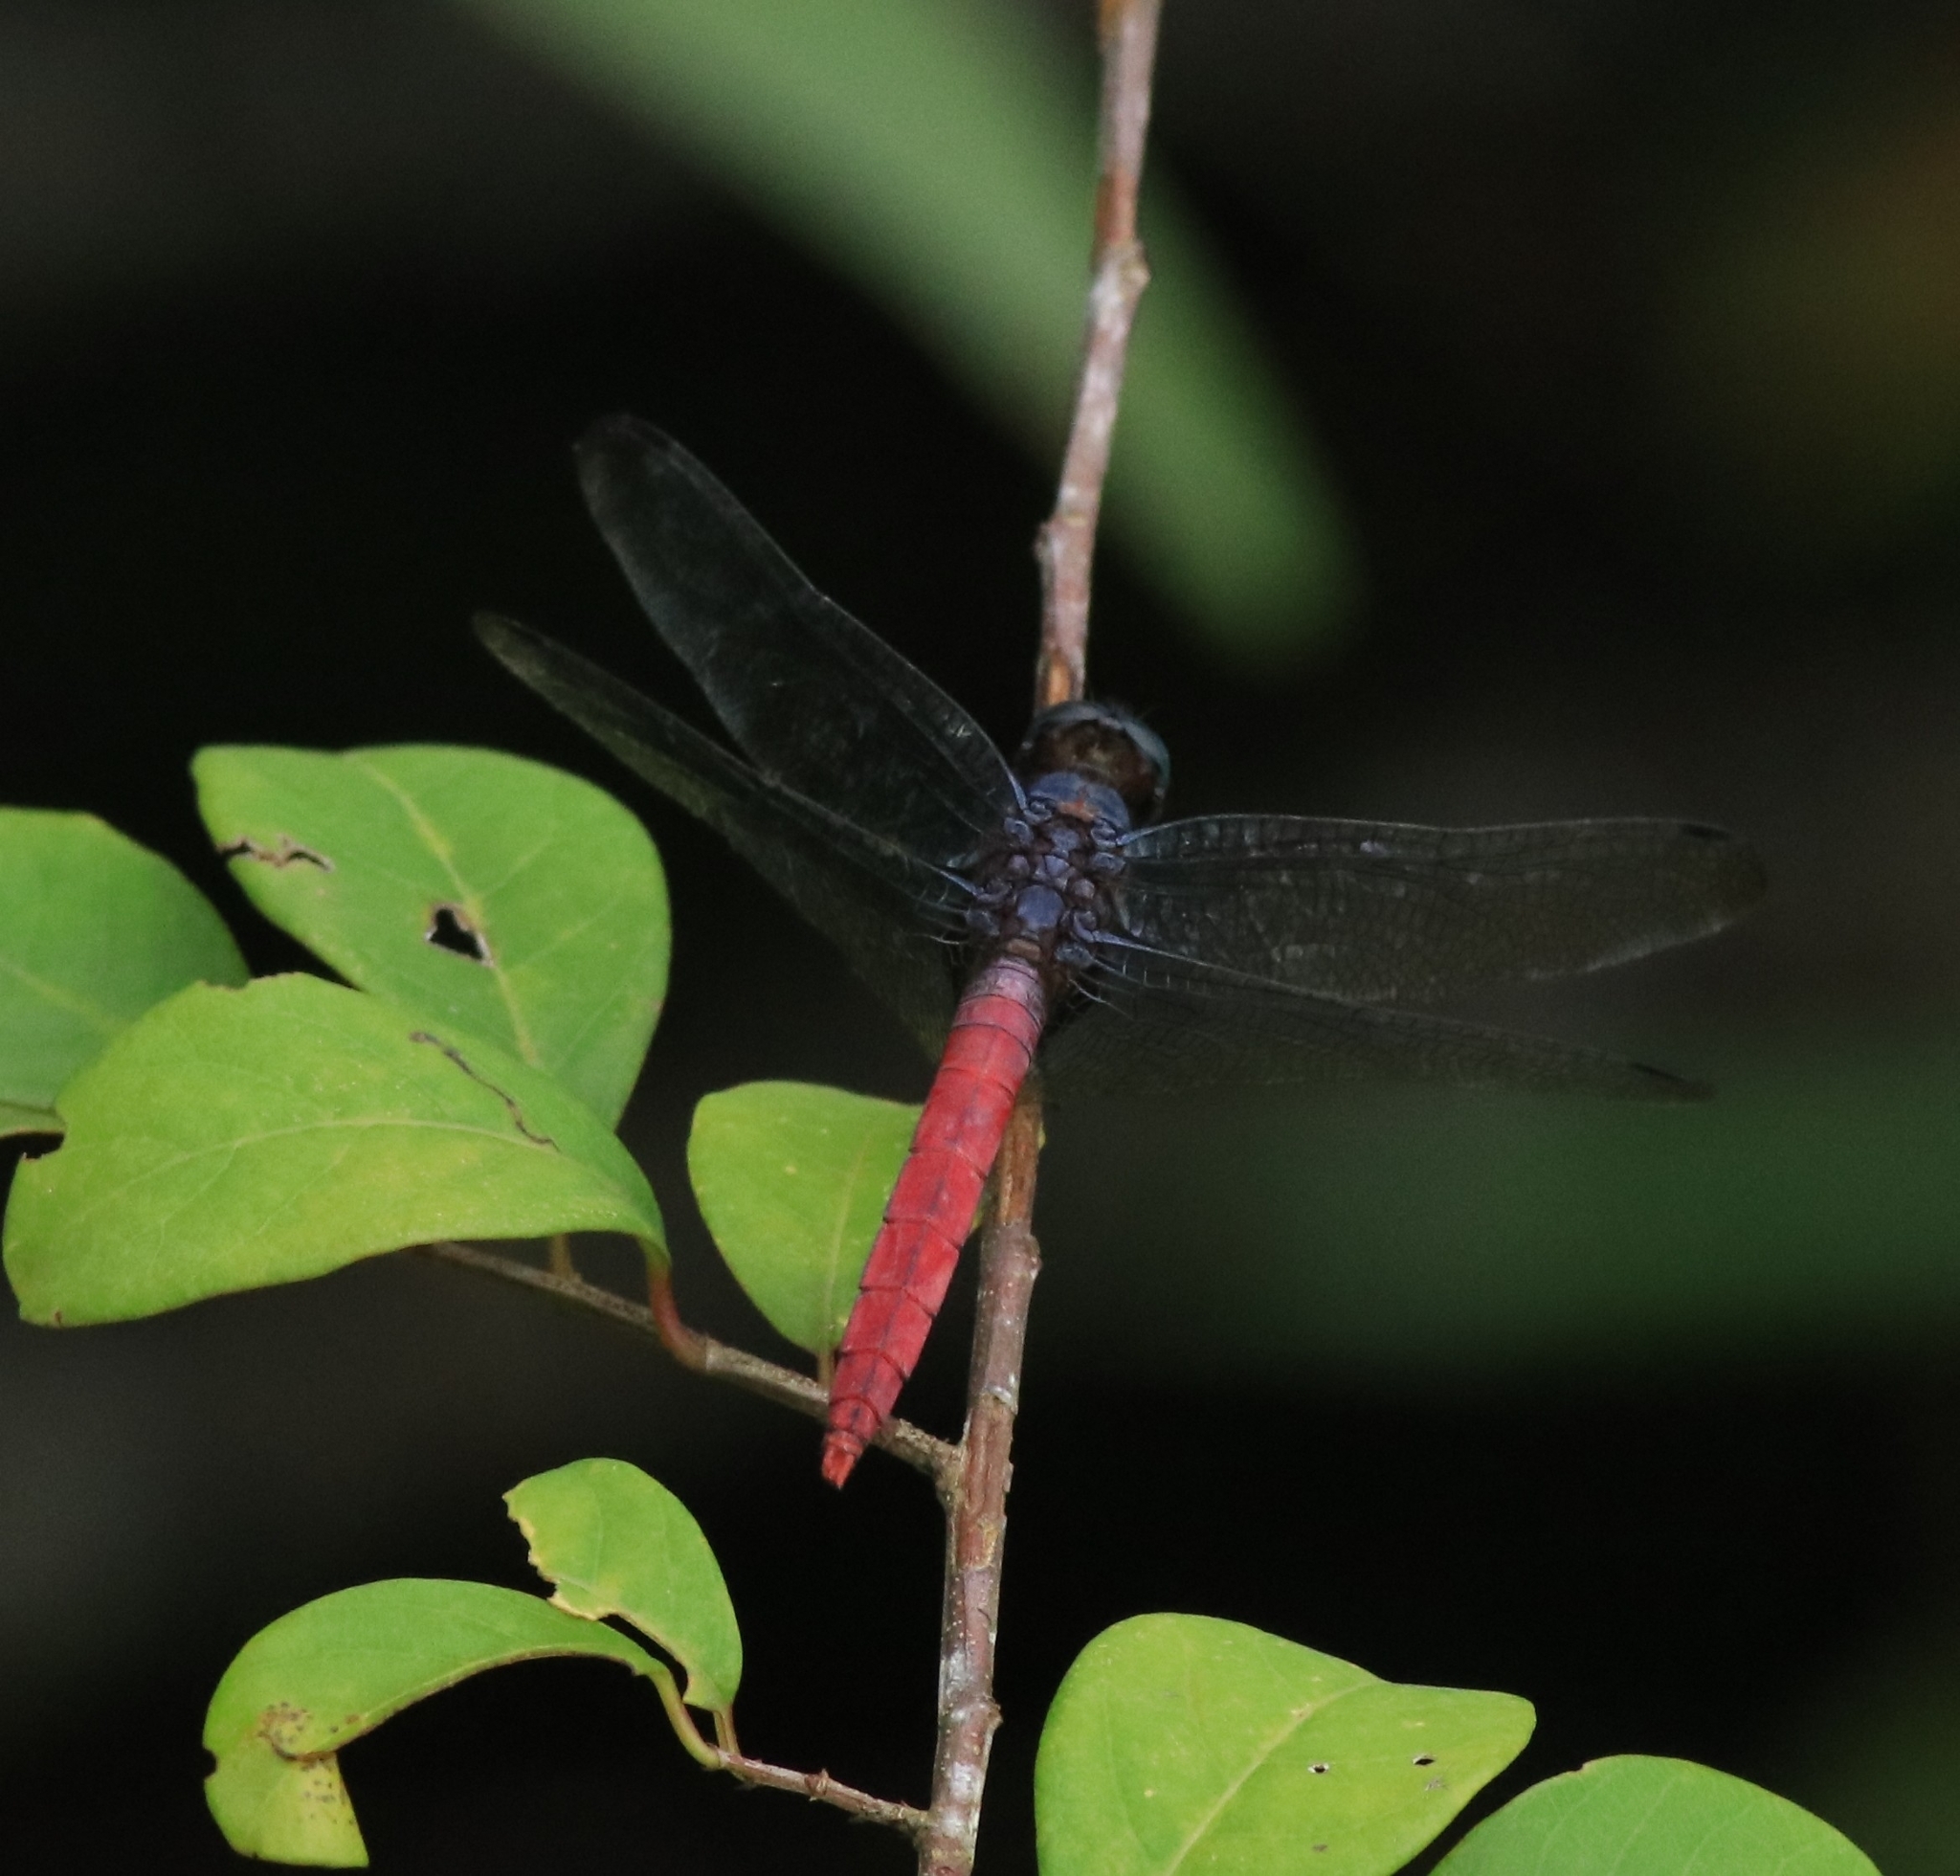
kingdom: Animalia
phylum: Arthropoda
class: Insecta
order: Odonata
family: Libellulidae
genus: Orthetrum
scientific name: Orthetrum pruinosum
